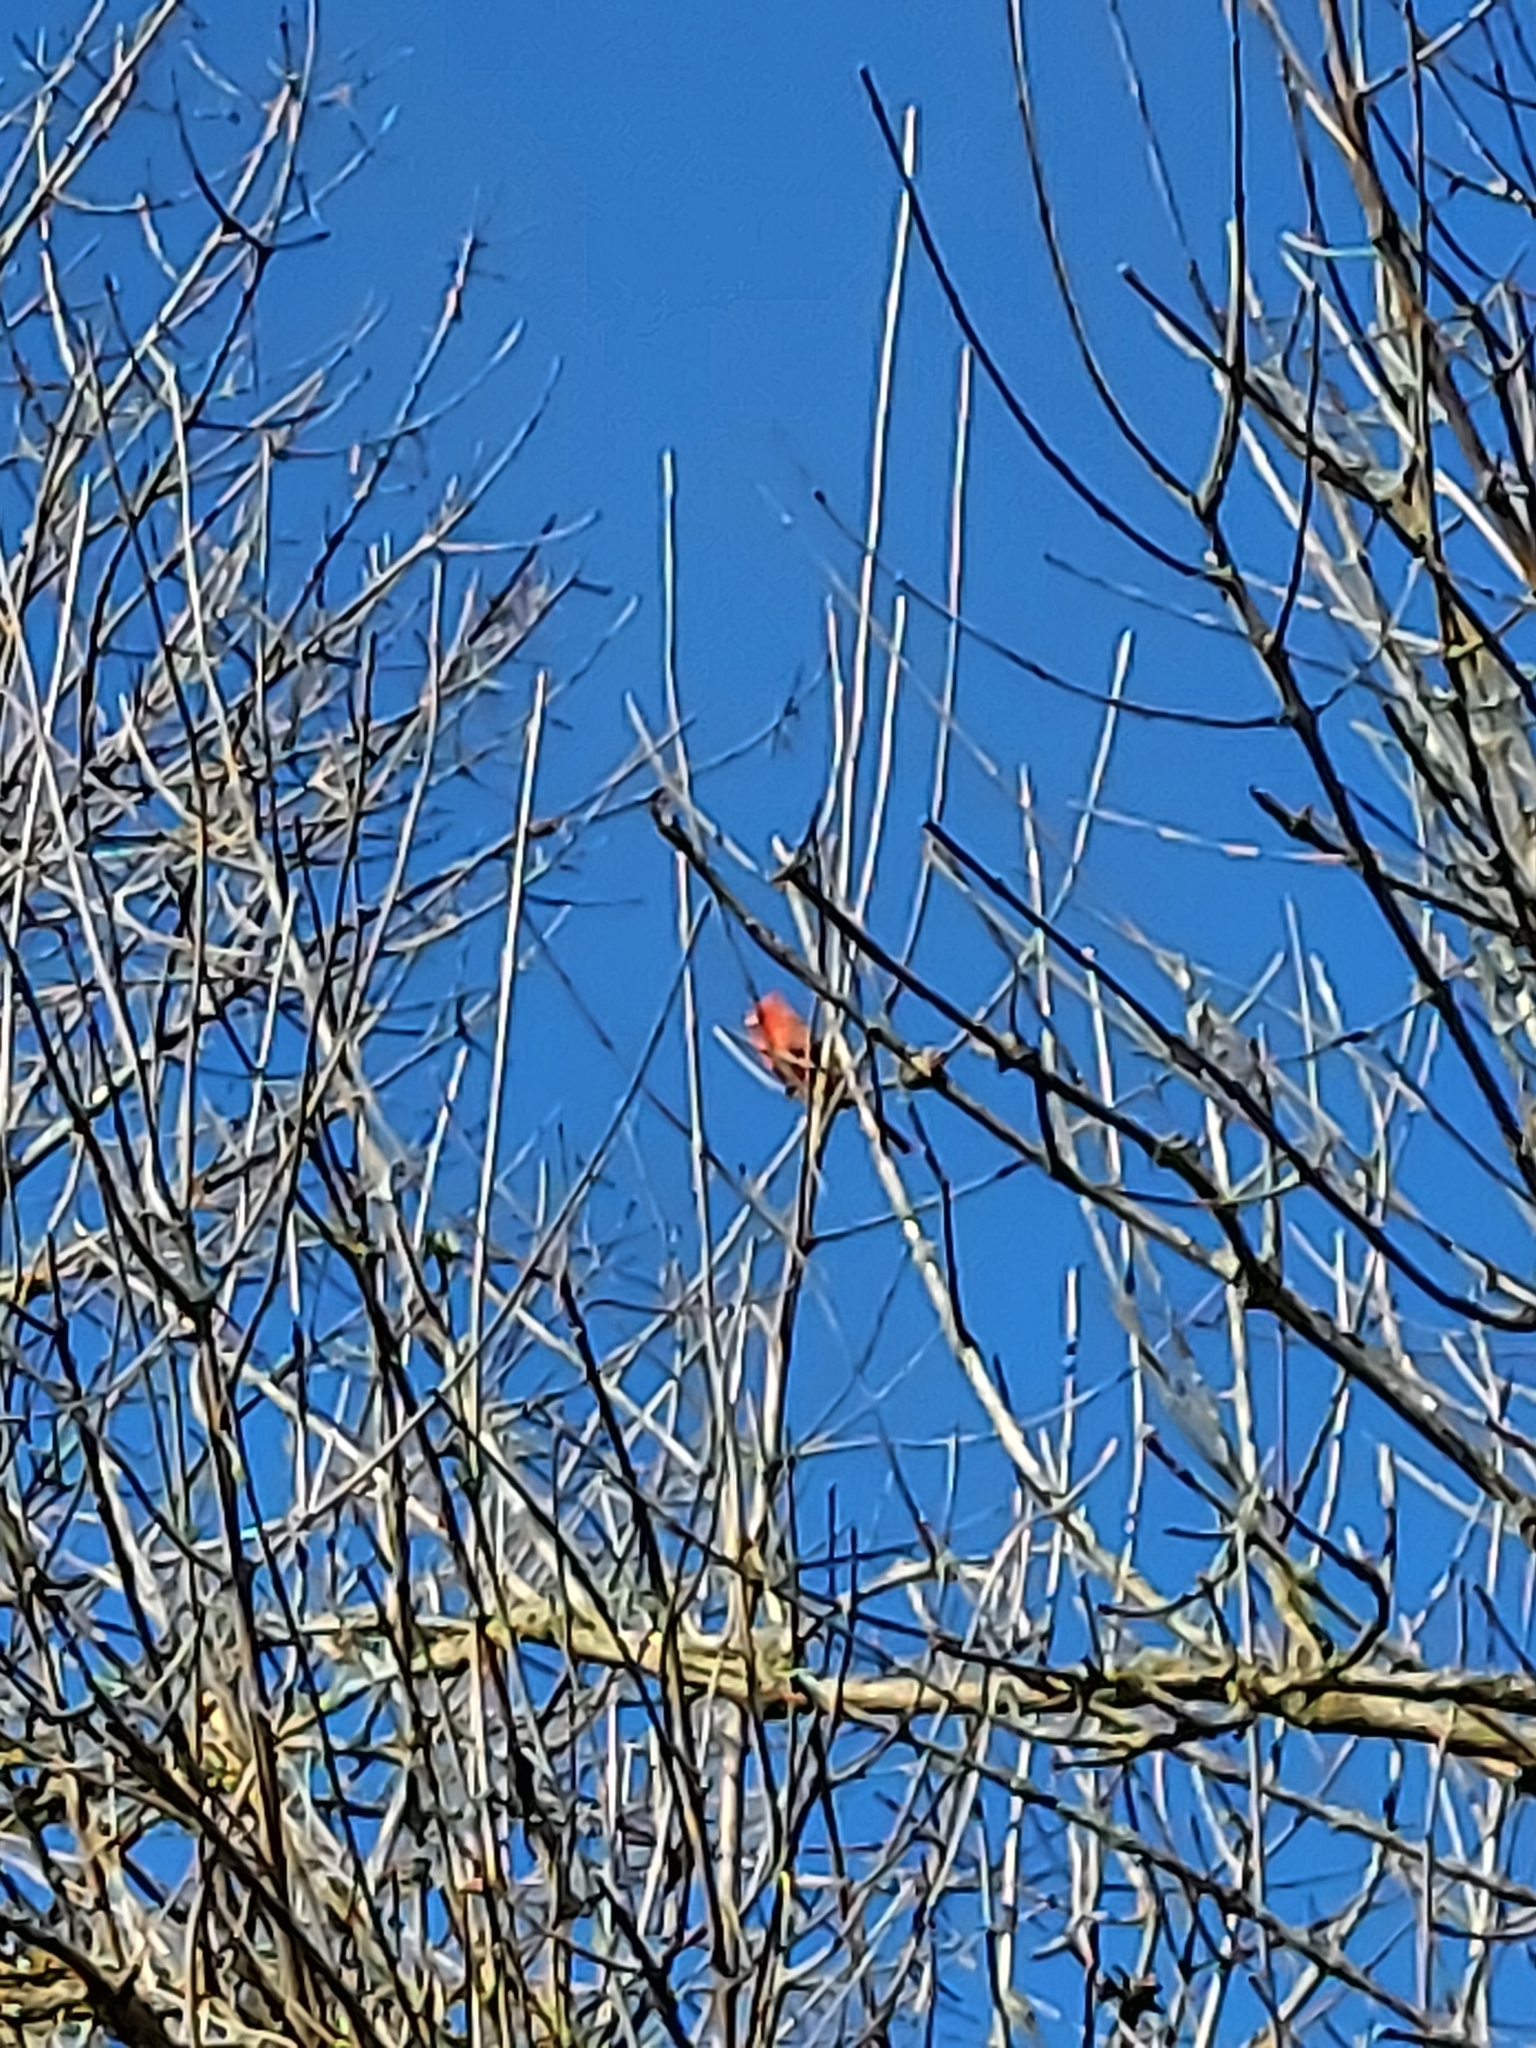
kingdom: Animalia
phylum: Chordata
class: Aves
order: Passeriformes
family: Cardinalidae
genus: Cardinalis
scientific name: Cardinalis cardinalis
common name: Northern cardinal
